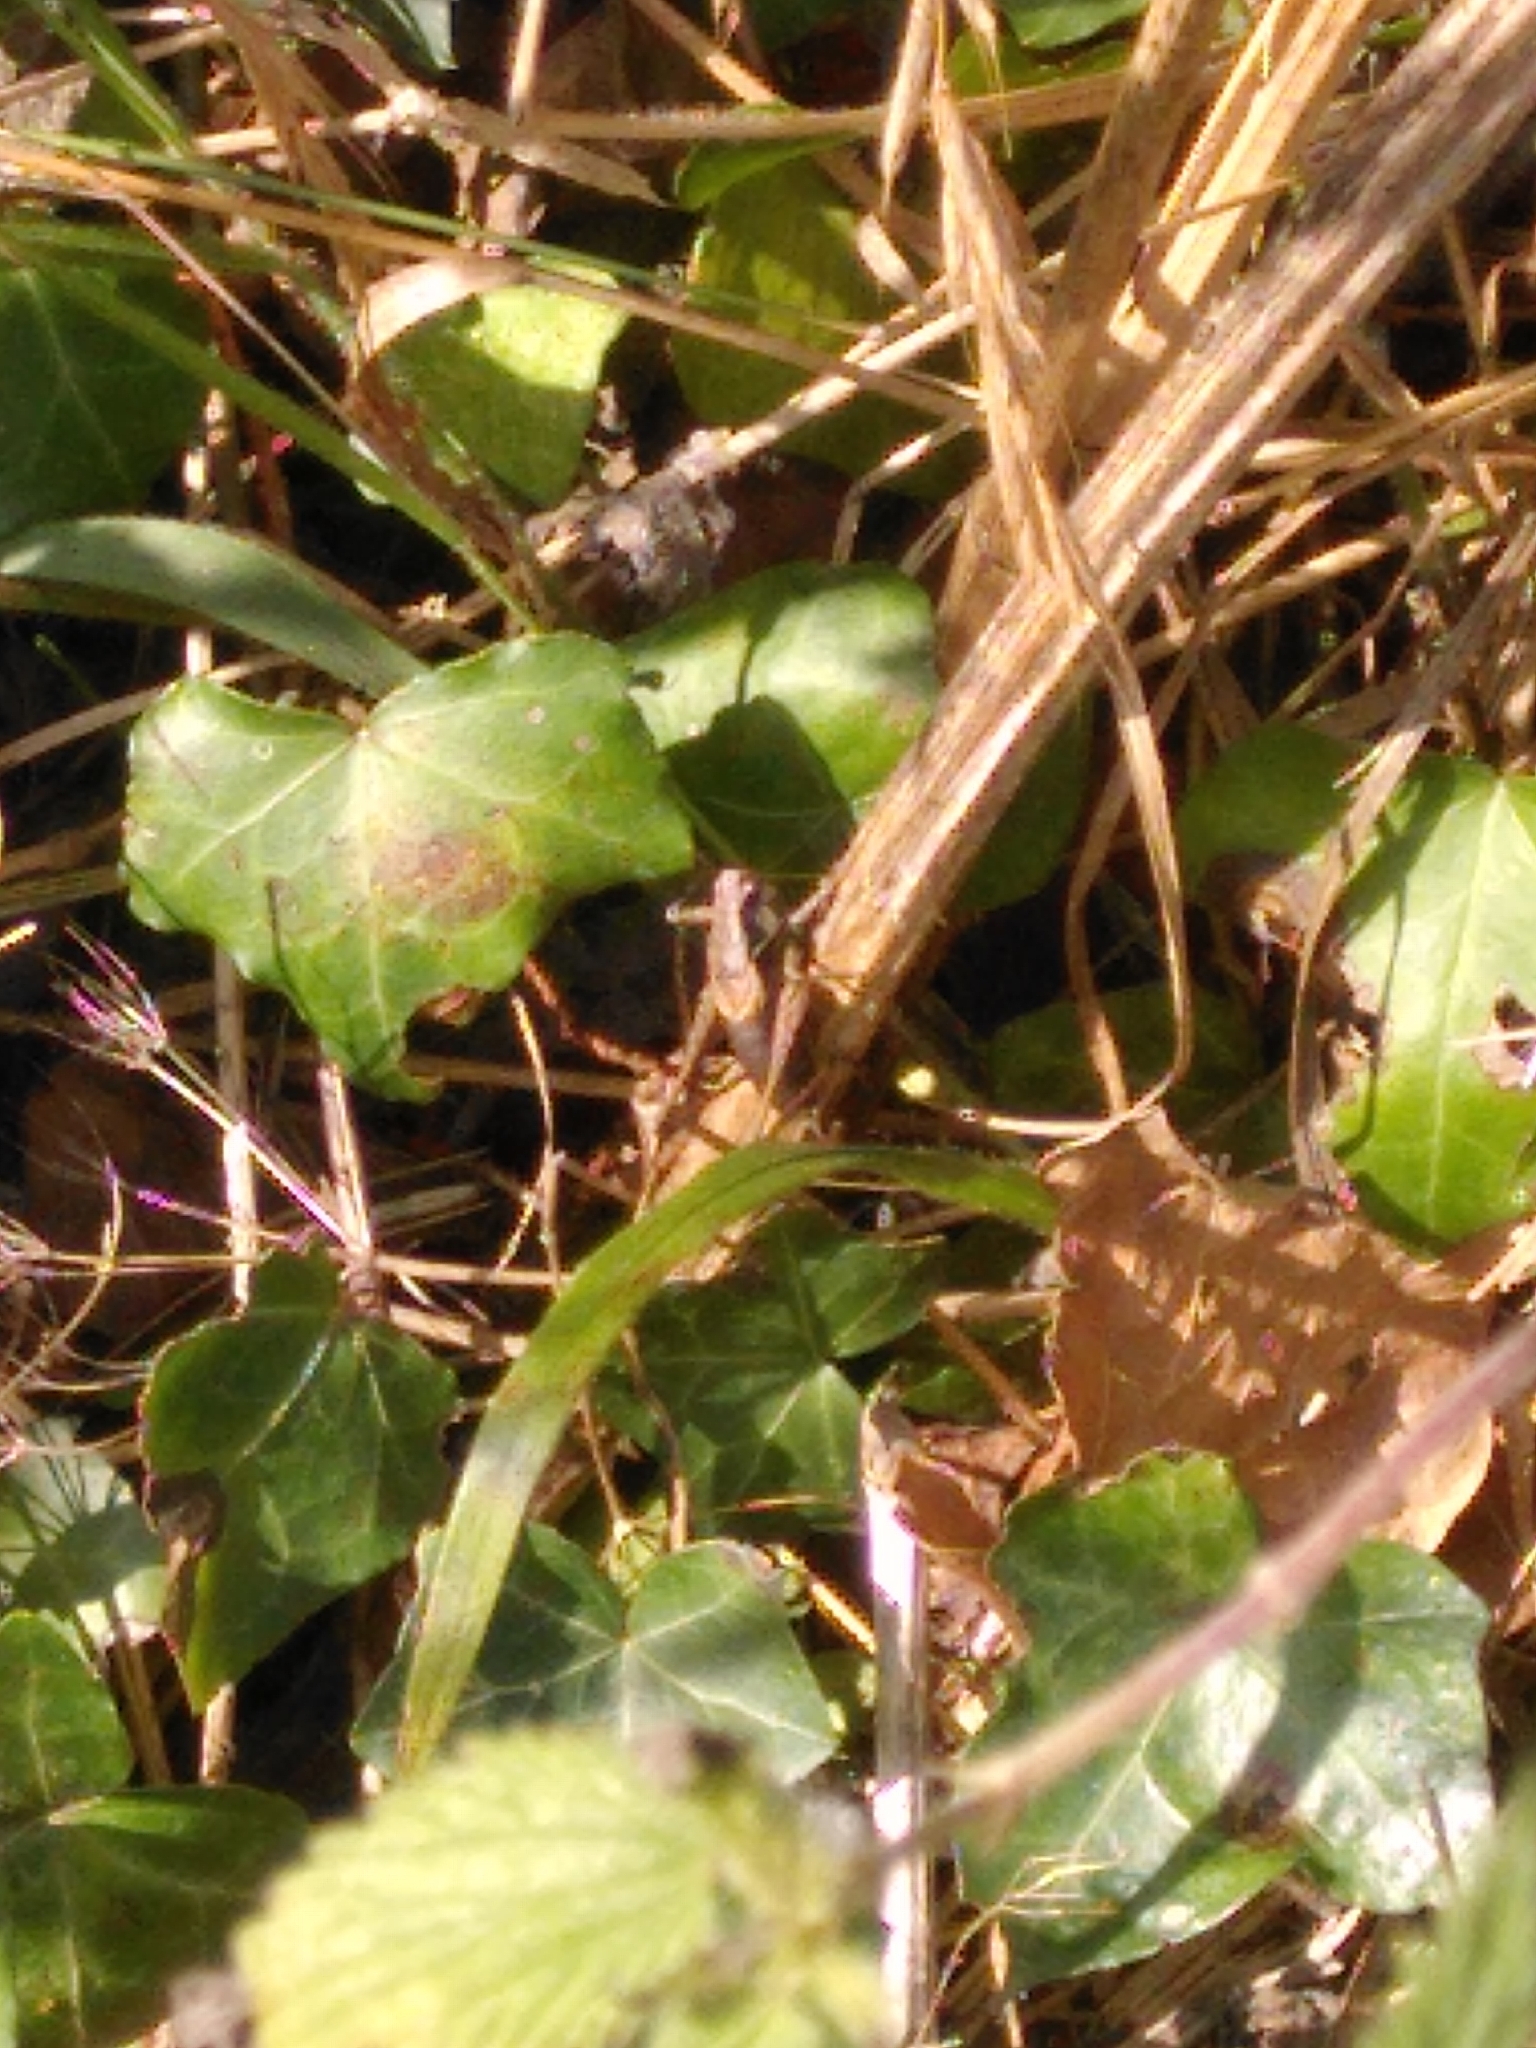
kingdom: Animalia
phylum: Arthropoda
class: Insecta
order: Orthoptera
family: Tettigoniidae
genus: Pholidoptera
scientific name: Pholidoptera griseoaptera
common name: Dark bush-cricket
